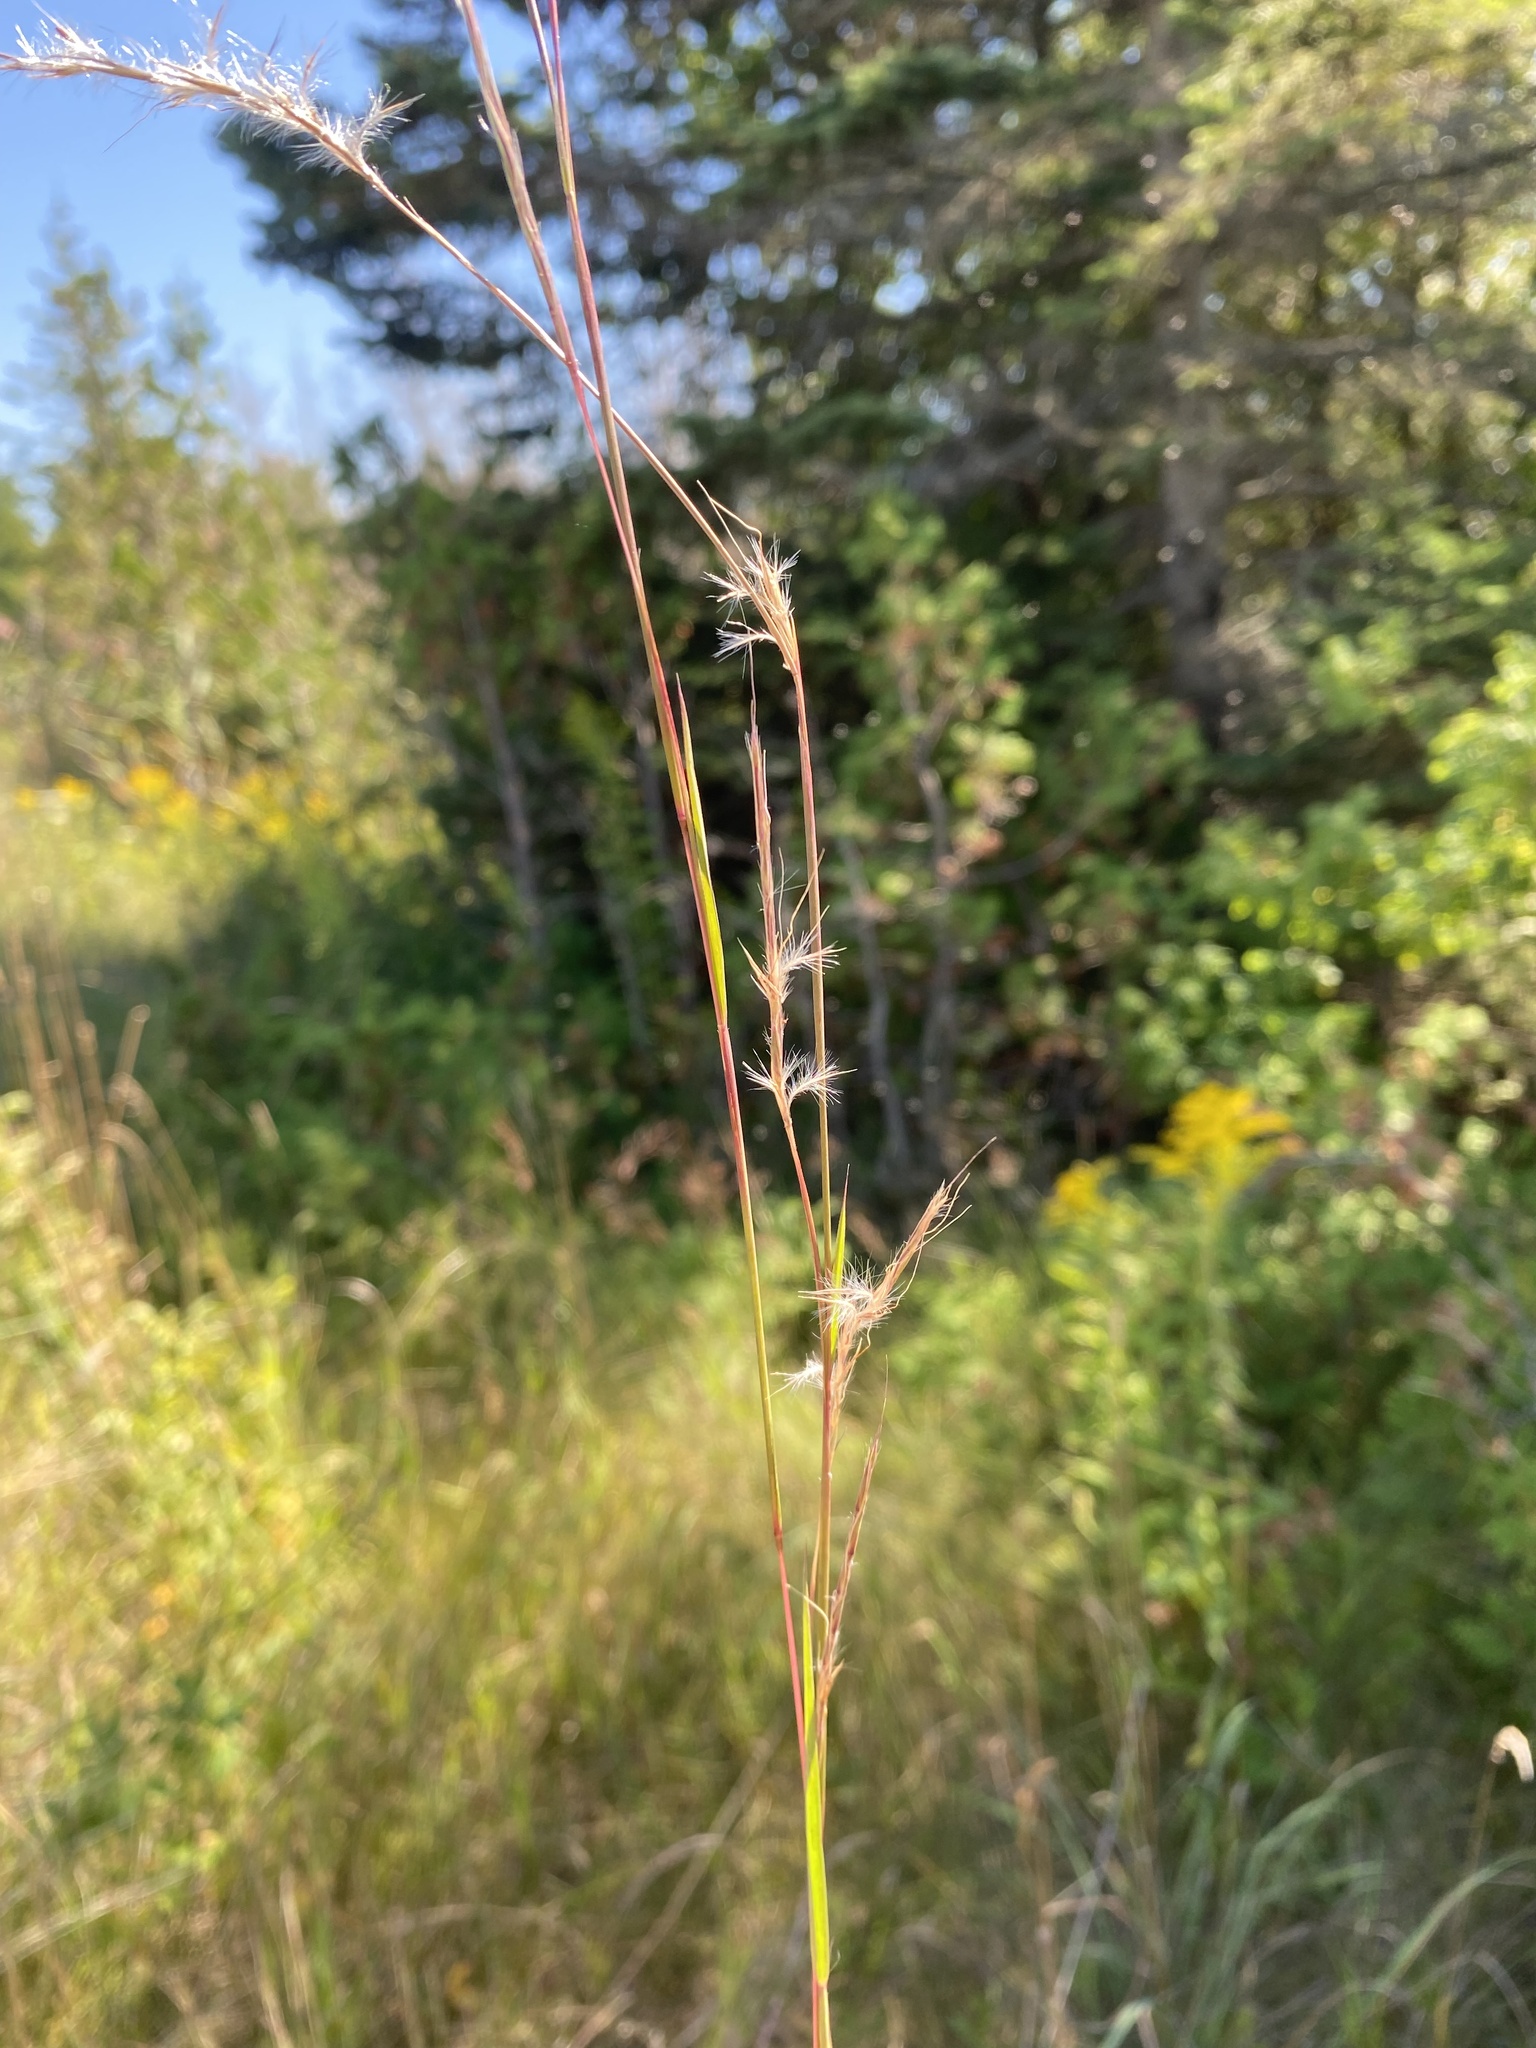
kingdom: Plantae
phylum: Tracheophyta
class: Liliopsida
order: Poales
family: Poaceae
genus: Schizachyrium
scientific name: Schizachyrium scoparium
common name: Little bluestem
